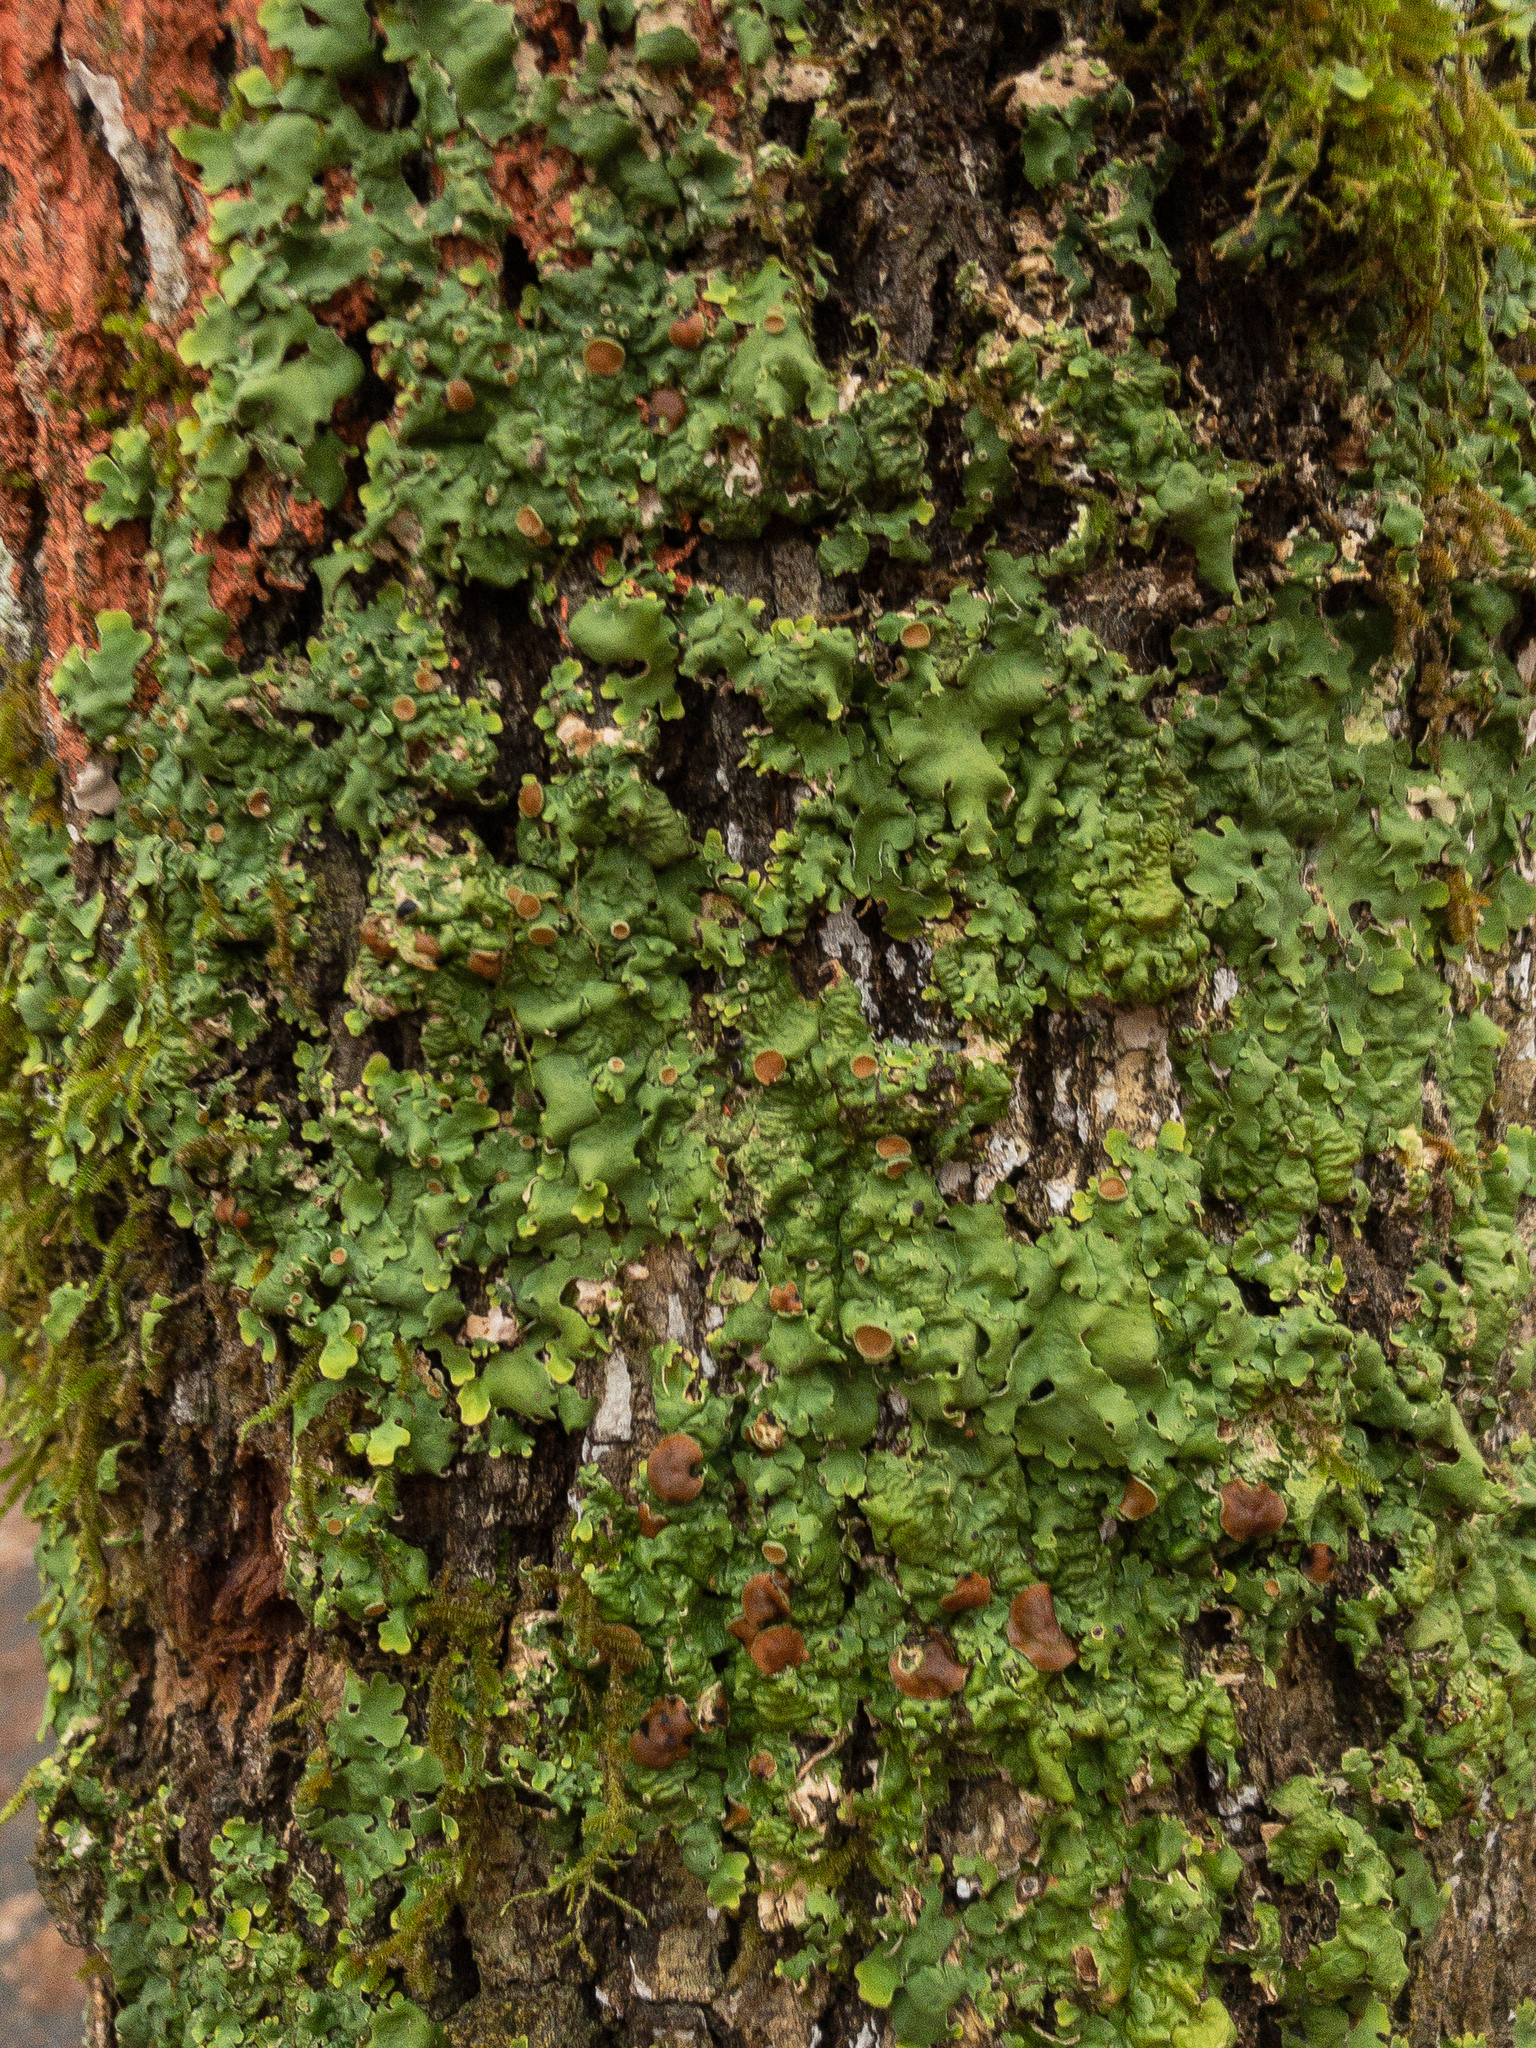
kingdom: Fungi
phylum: Ascomycota
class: Lecanoromycetes
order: Peltigerales
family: Lobariaceae
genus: Ricasolia
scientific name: Ricasolia quercizans
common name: Smooth lungwort
